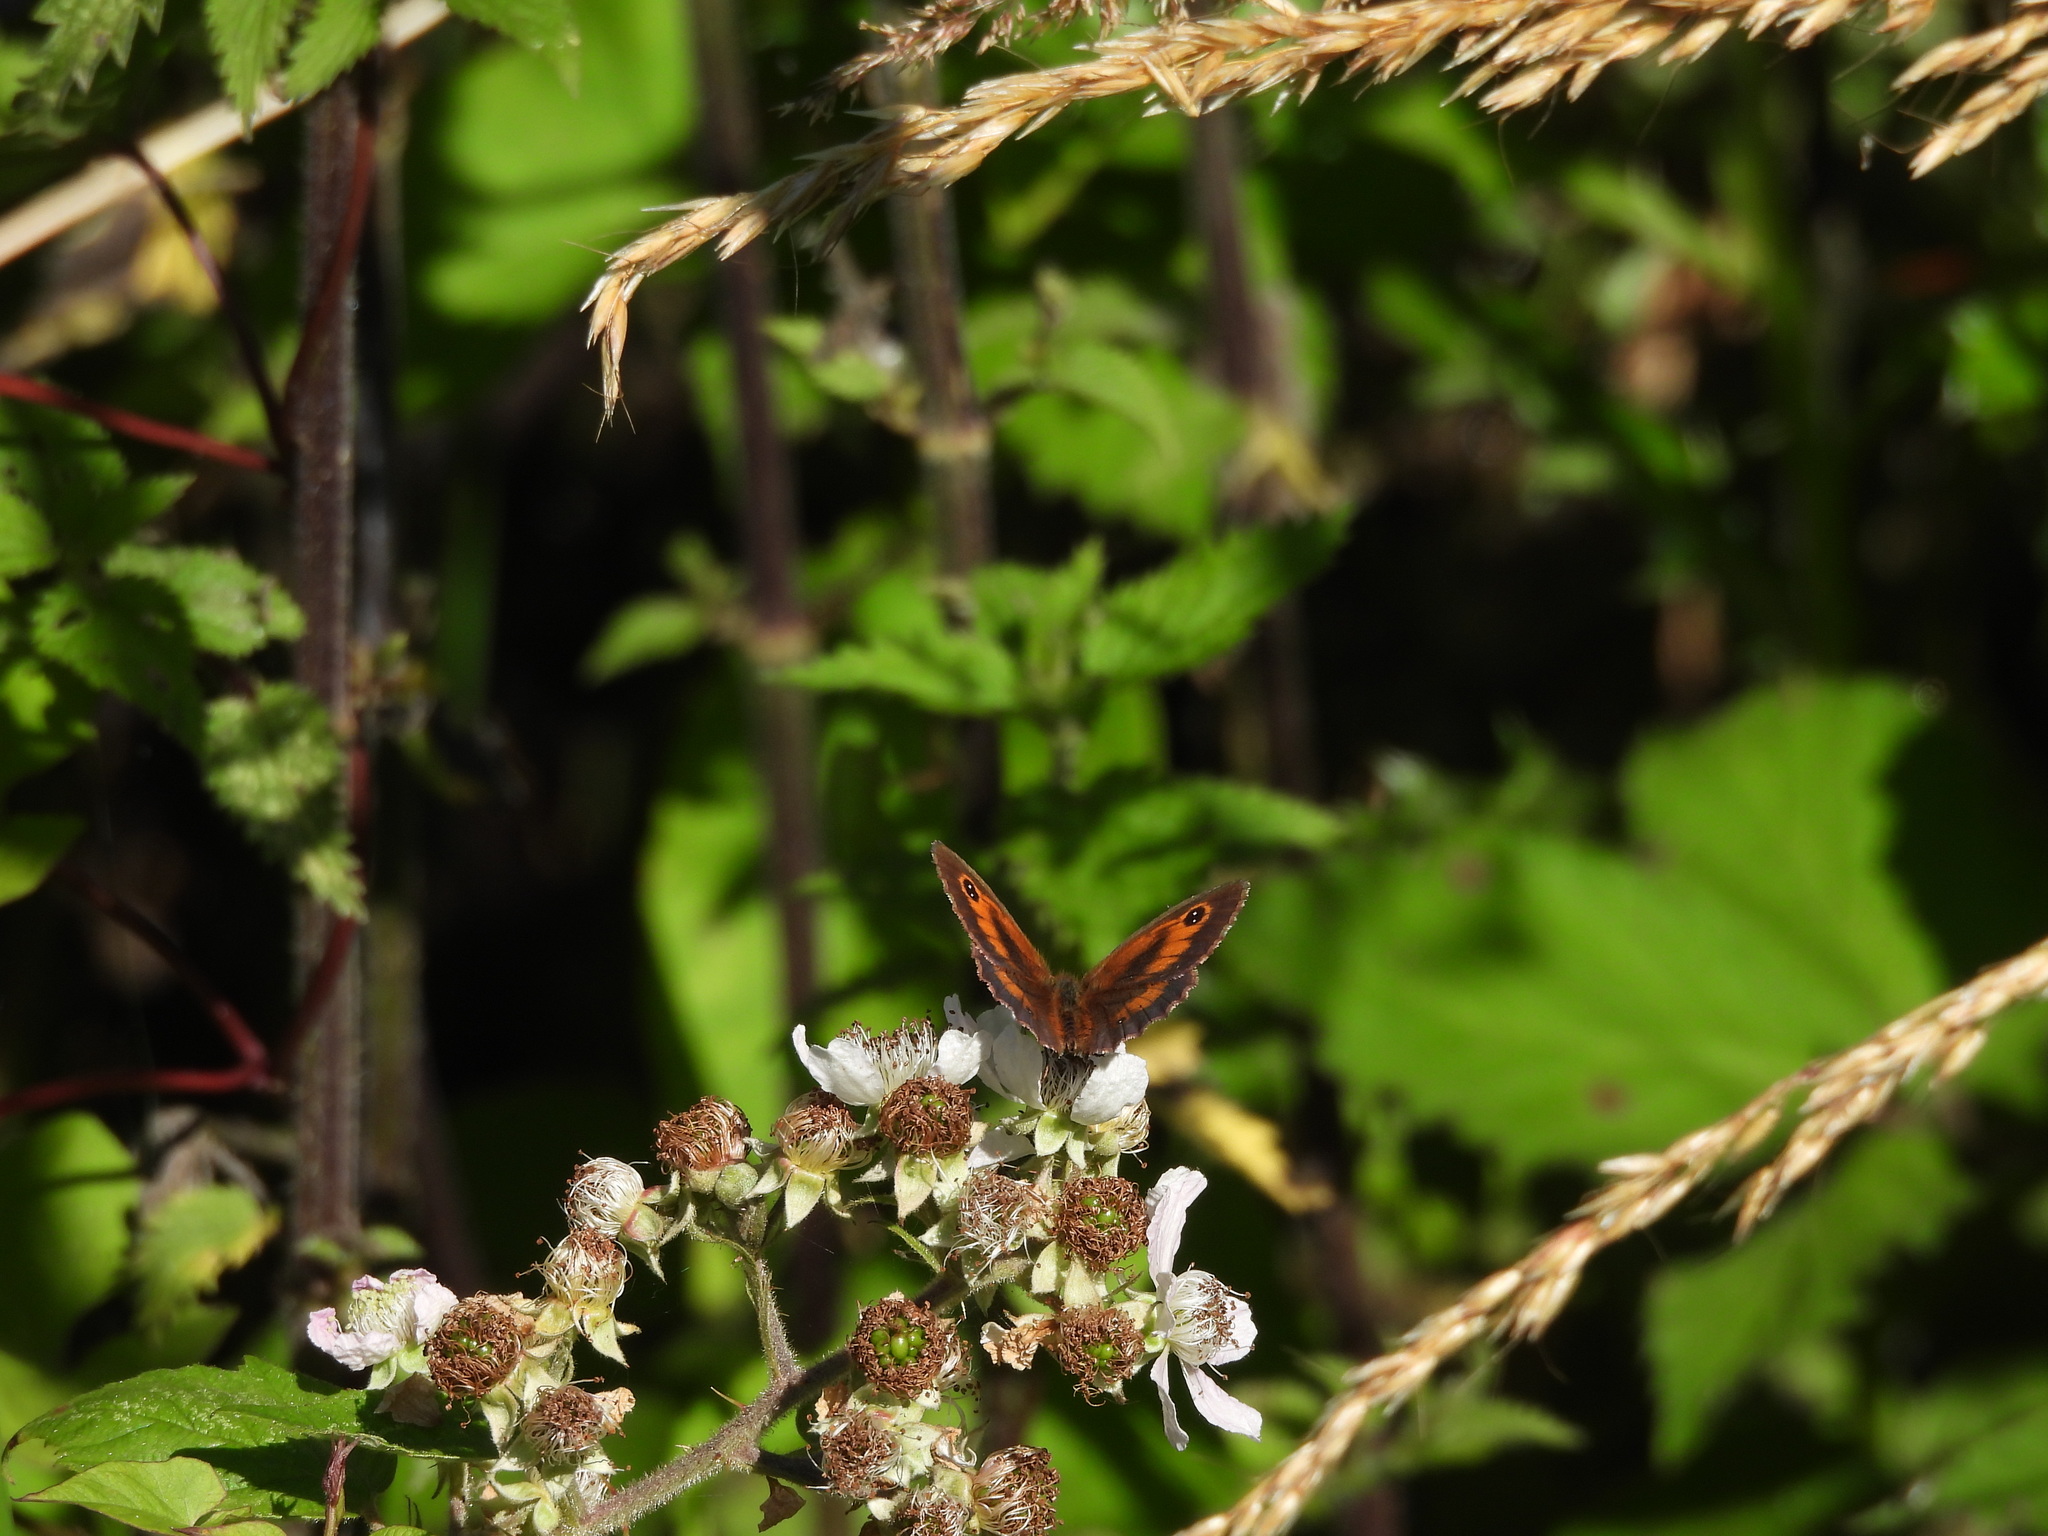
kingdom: Animalia
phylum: Arthropoda
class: Insecta
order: Lepidoptera
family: Nymphalidae
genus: Pyronia
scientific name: Pyronia tithonus
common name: Gatekeeper
